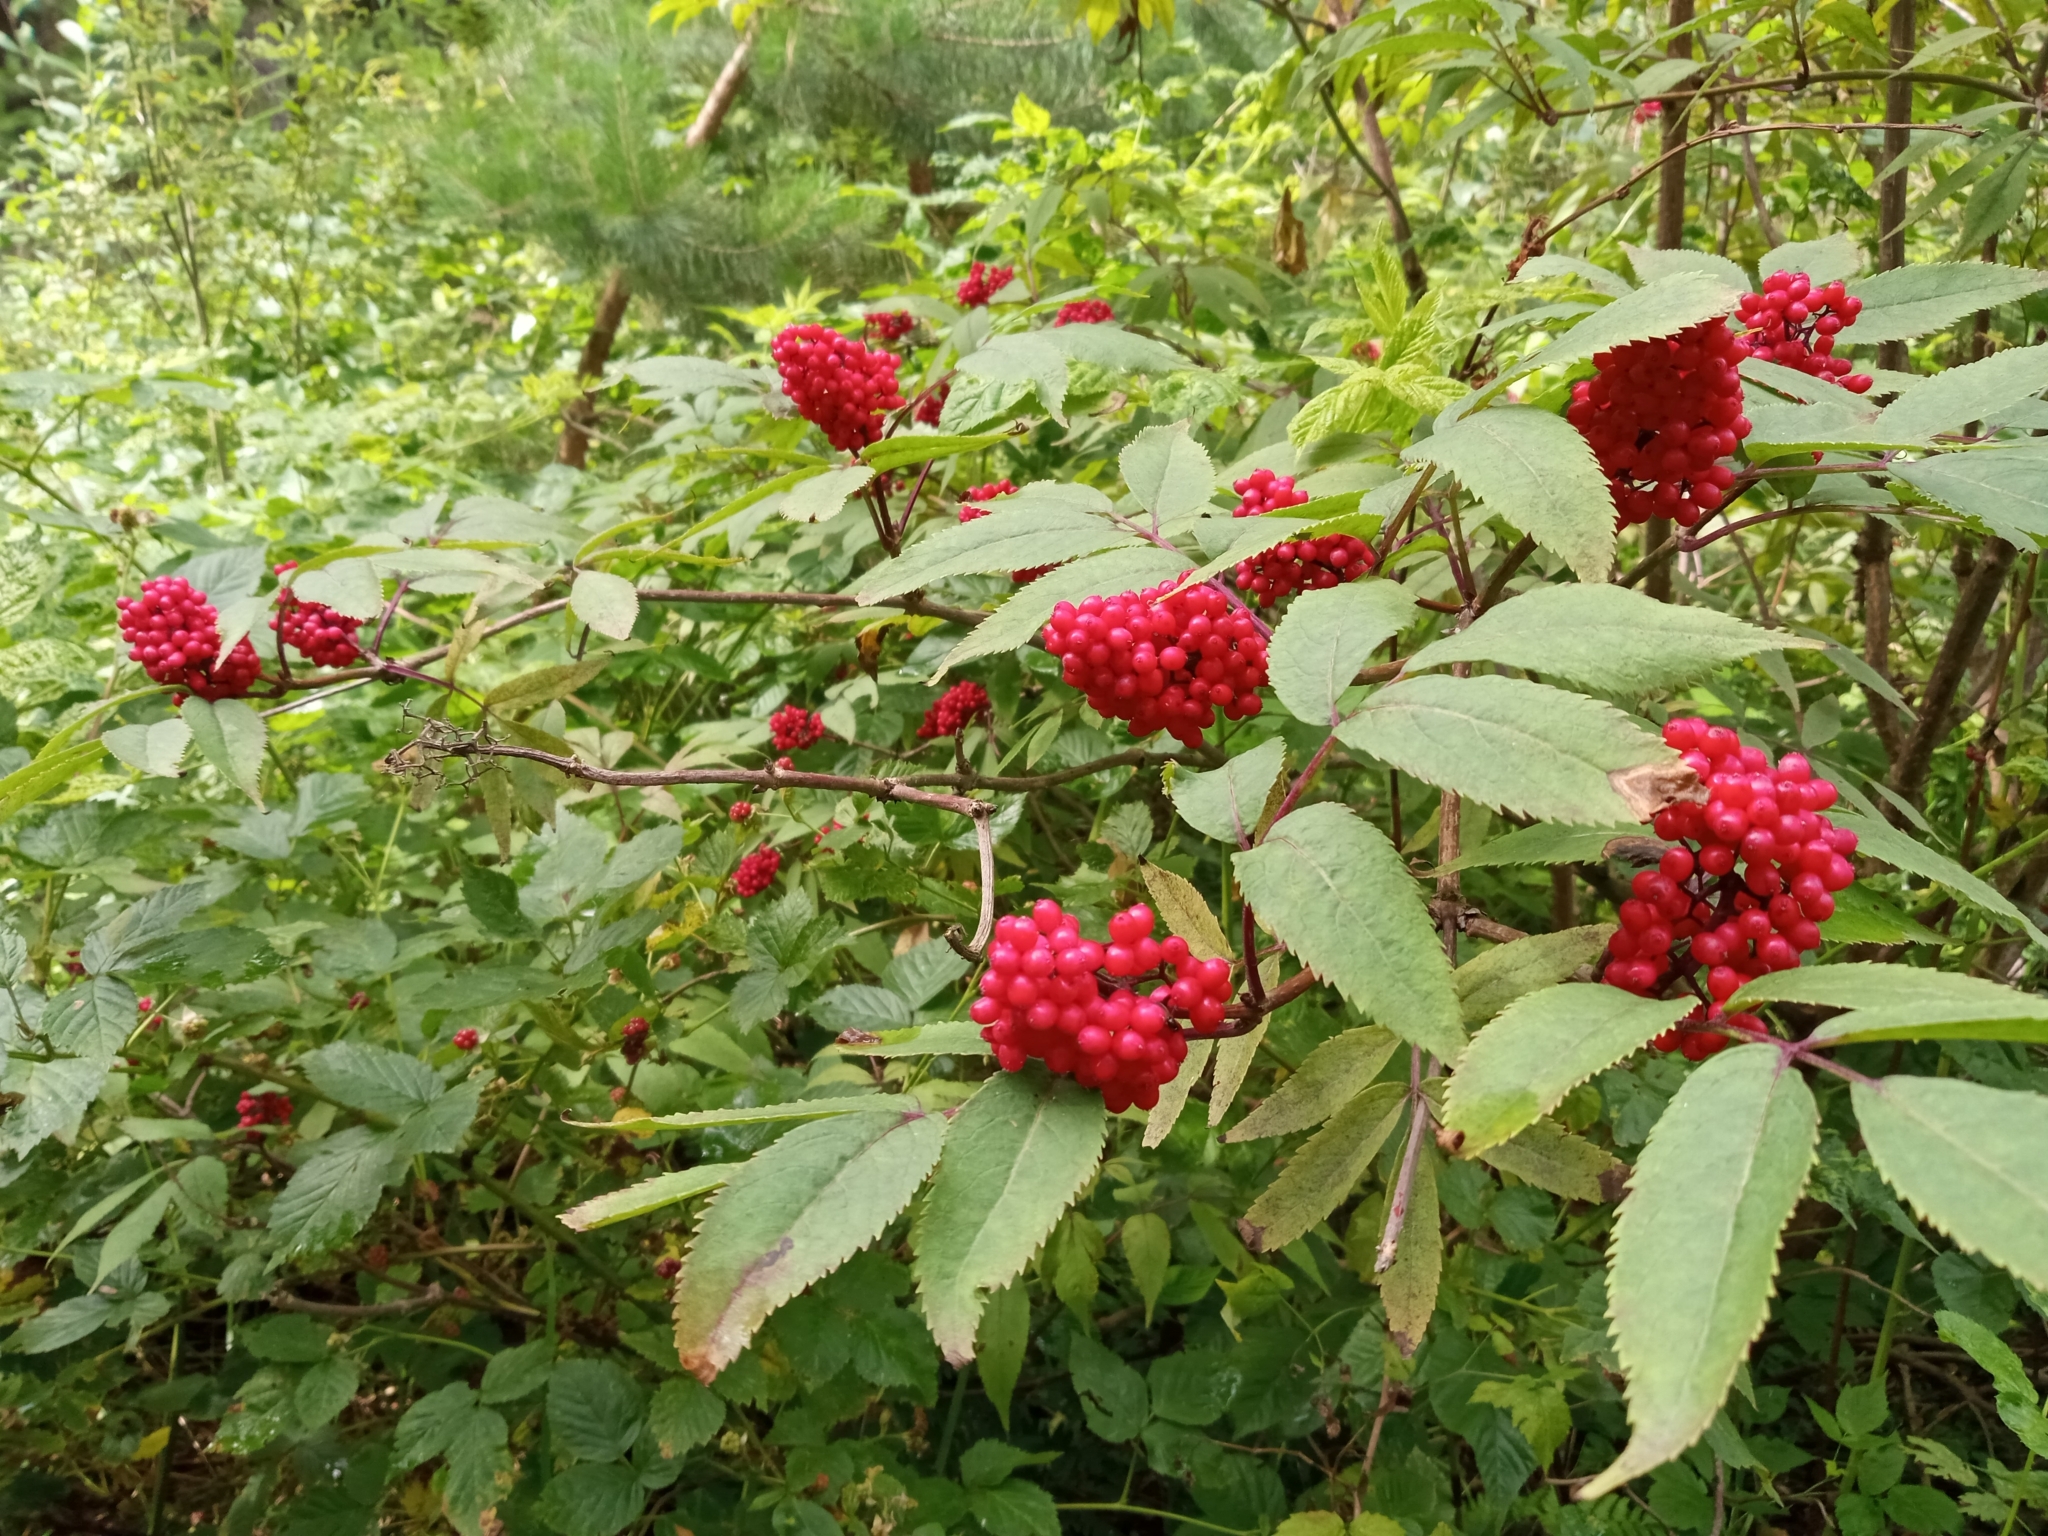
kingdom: Plantae
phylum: Tracheophyta
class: Magnoliopsida
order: Dipsacales
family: Viburnaceae
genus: Sambucus
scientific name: Sambucus racemosa
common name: Red-berried elder
